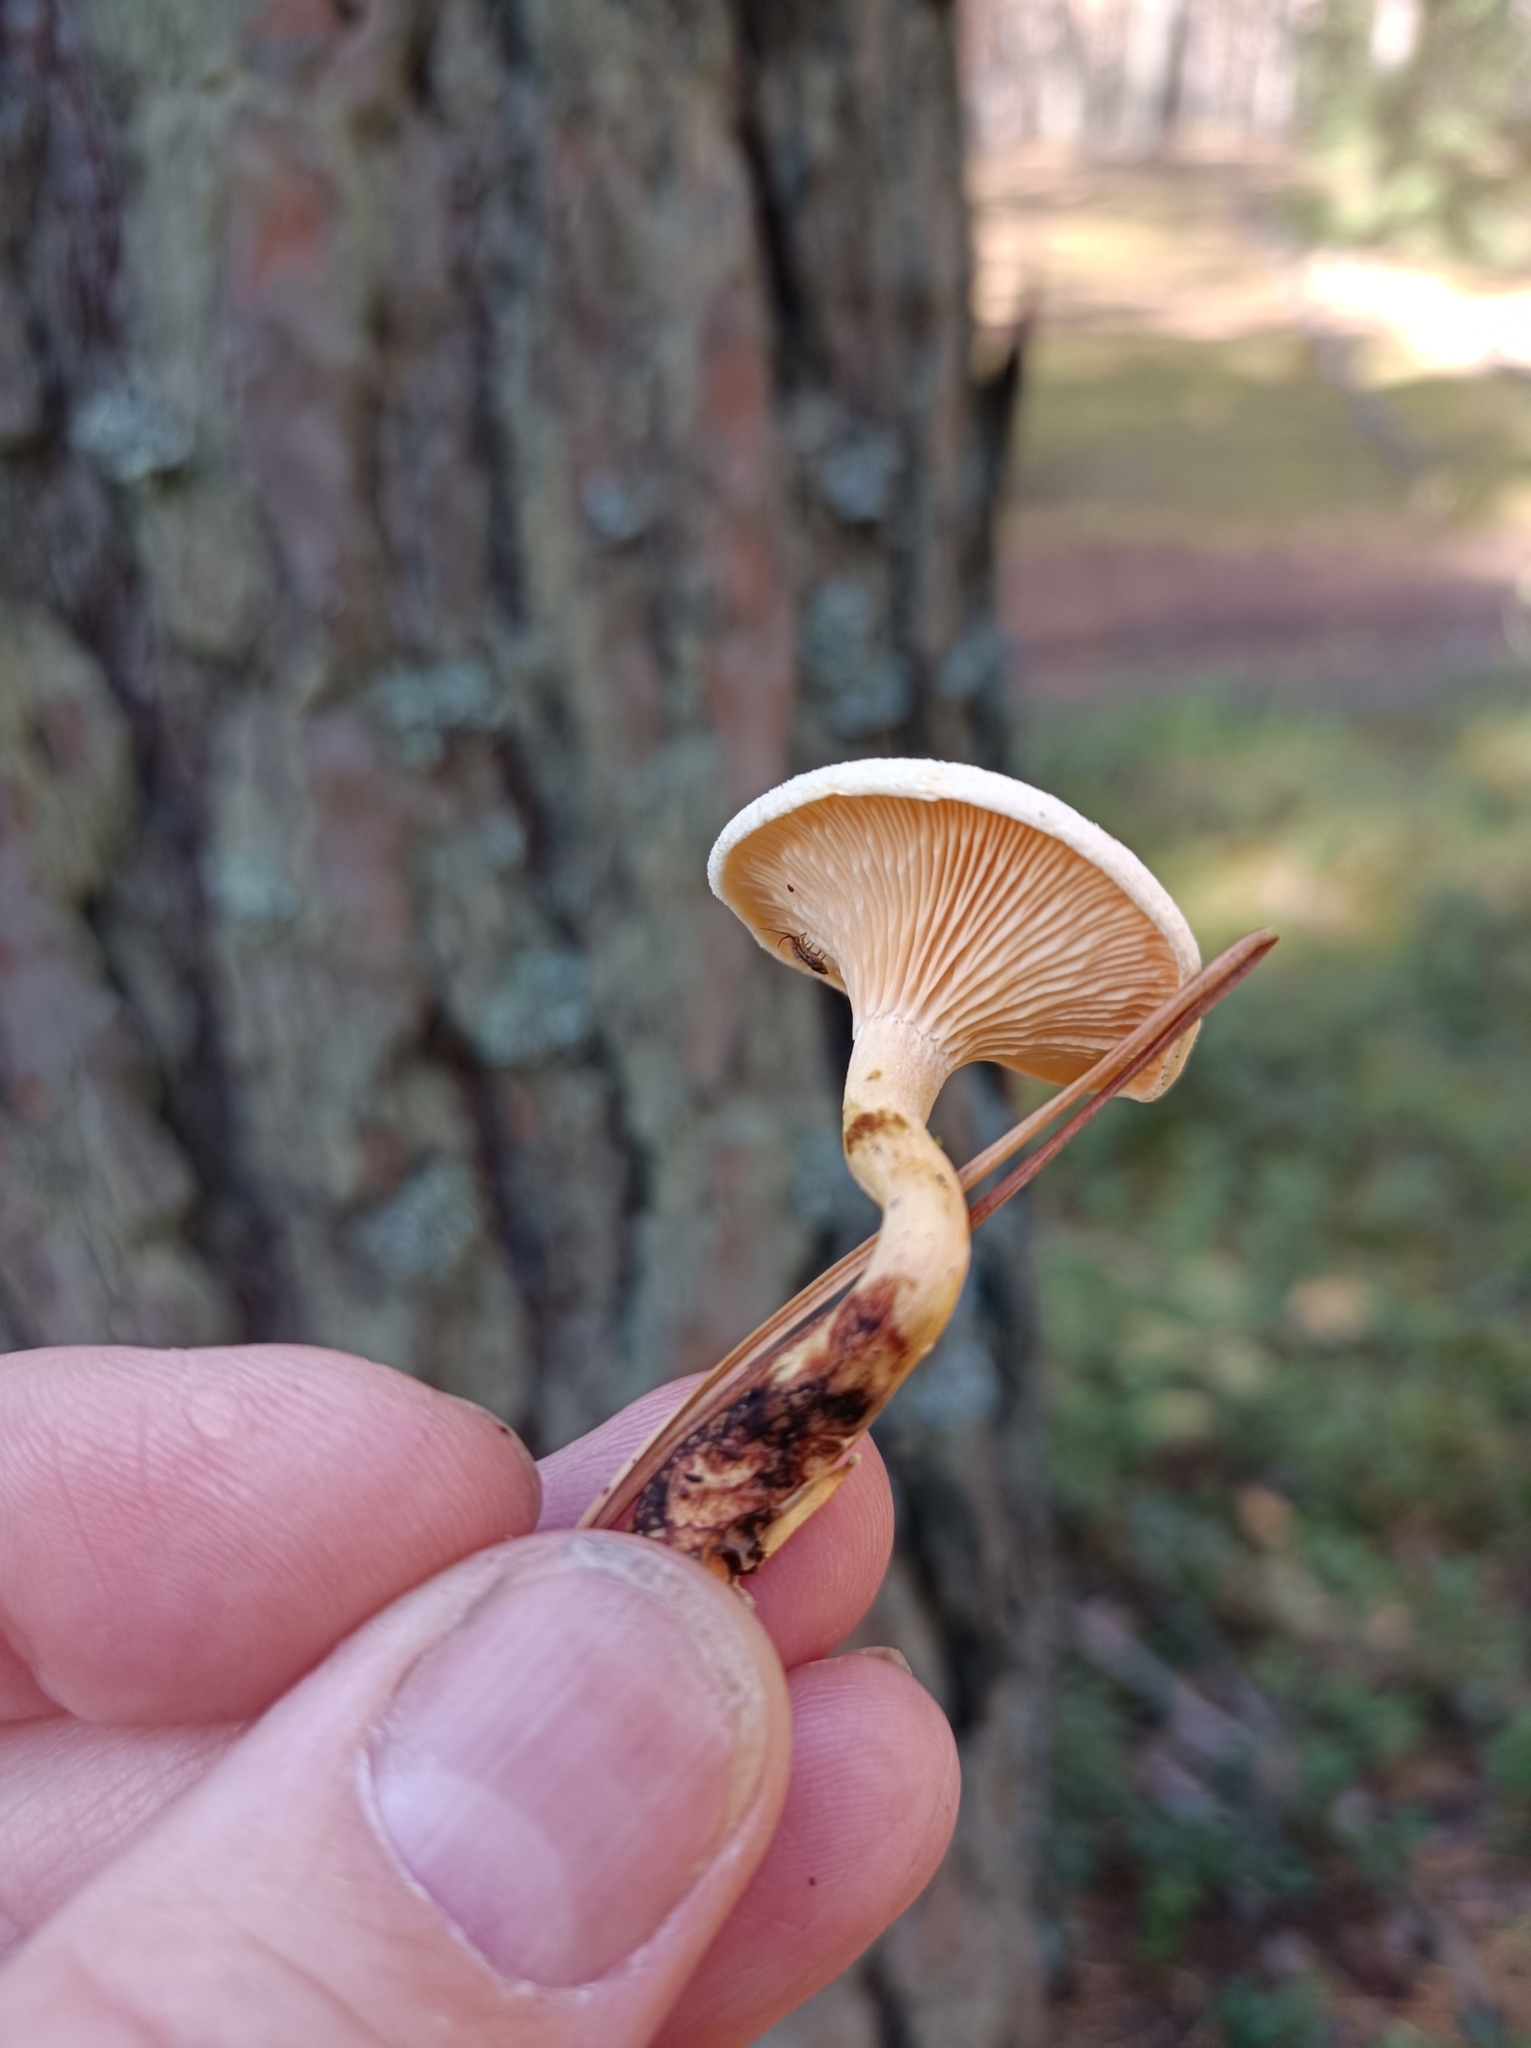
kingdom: Fungi
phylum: Basidiomycota
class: Agaricomycetes
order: Boletales
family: Hygrophoropsidaceae
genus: Hygrophoropsis
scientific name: Hygrophoropsis aurantiaca
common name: False chanterelle
